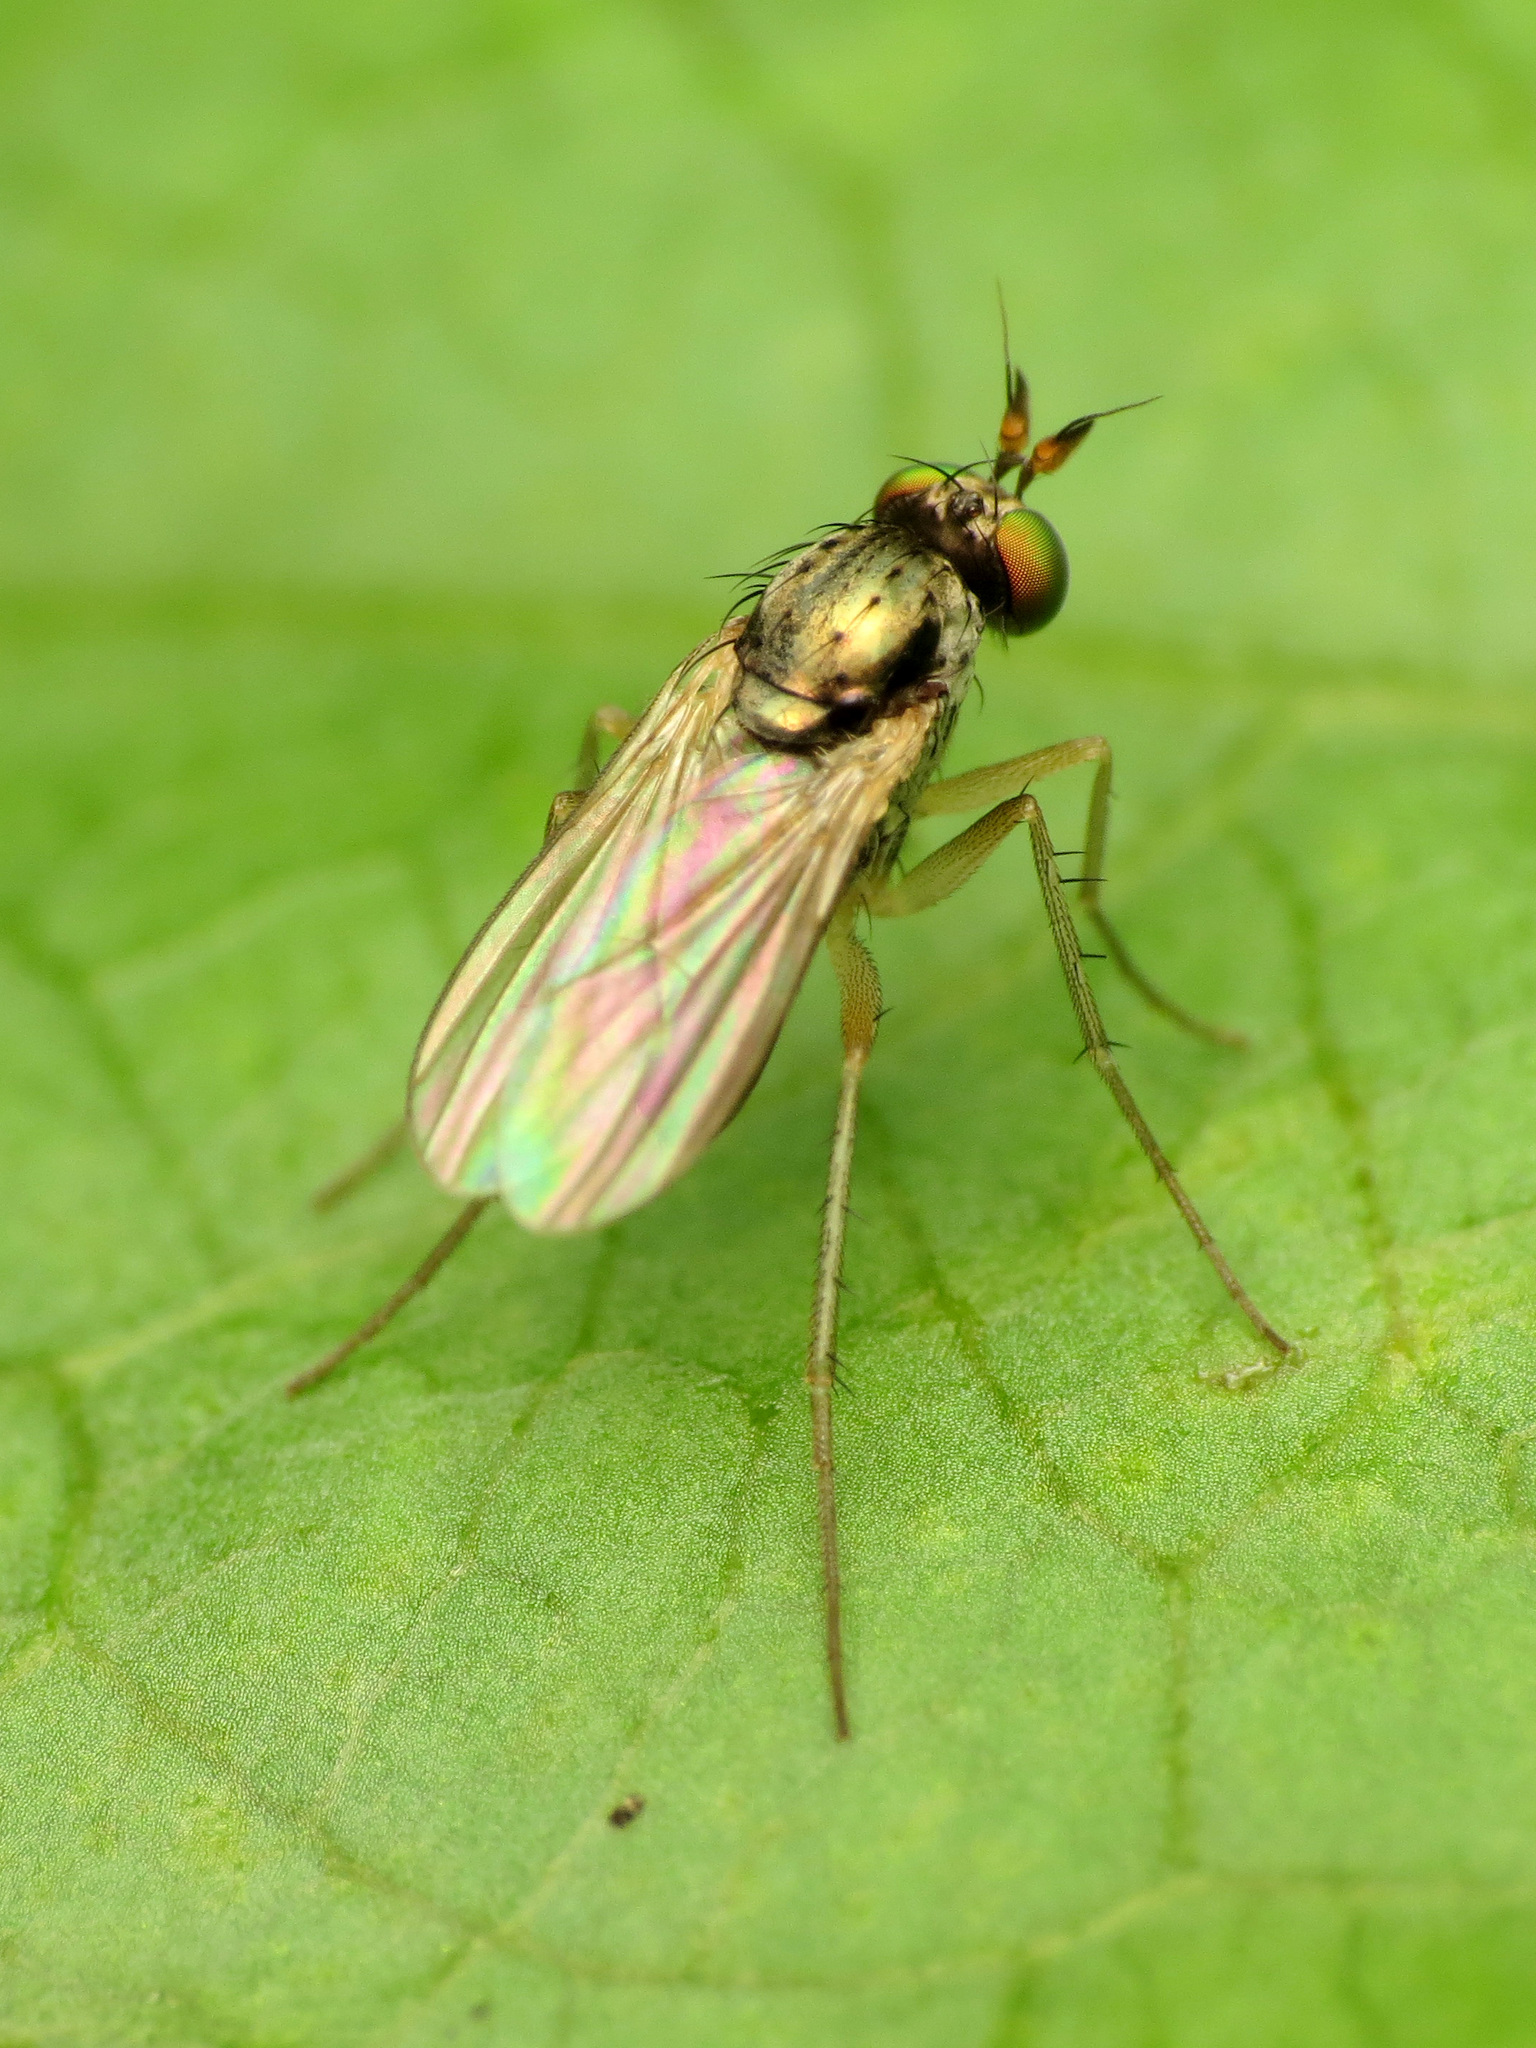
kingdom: Animalia
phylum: Arthropoda
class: Insecta
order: Diptera
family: Dolichopodidae
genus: Gymnopternus
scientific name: Gymnopternus opacus
